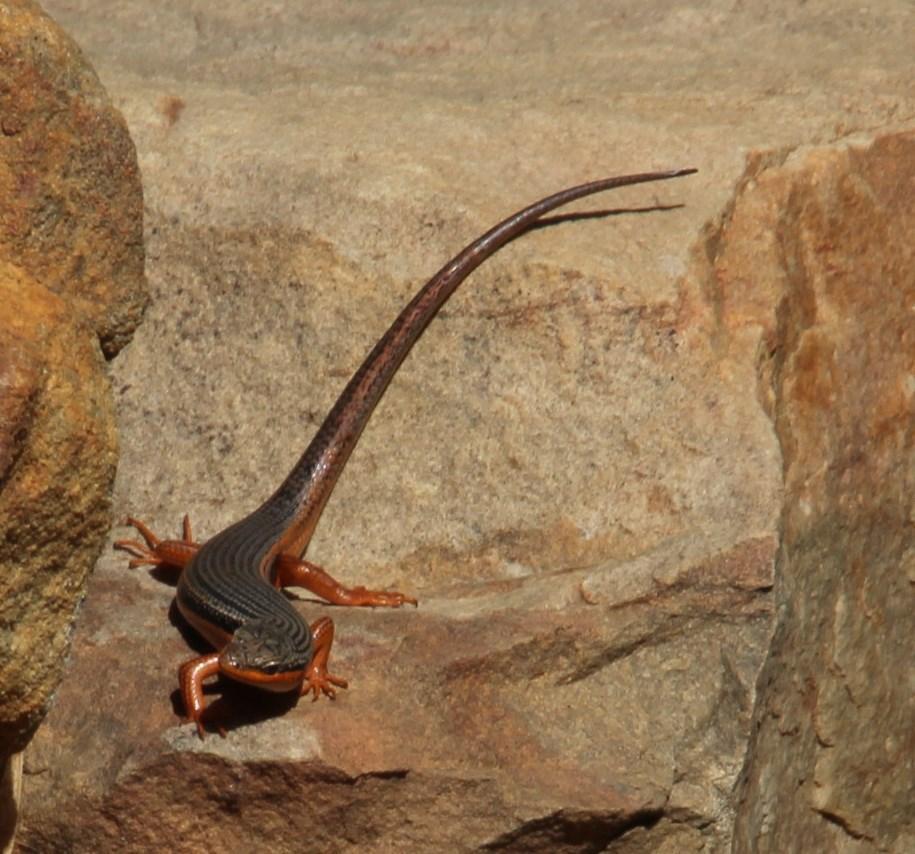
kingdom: Animalia
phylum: Chordata
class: Squamata
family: Scincidae
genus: Trachylepis
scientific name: Trachylepis homalocephala
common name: Red-sided skink
